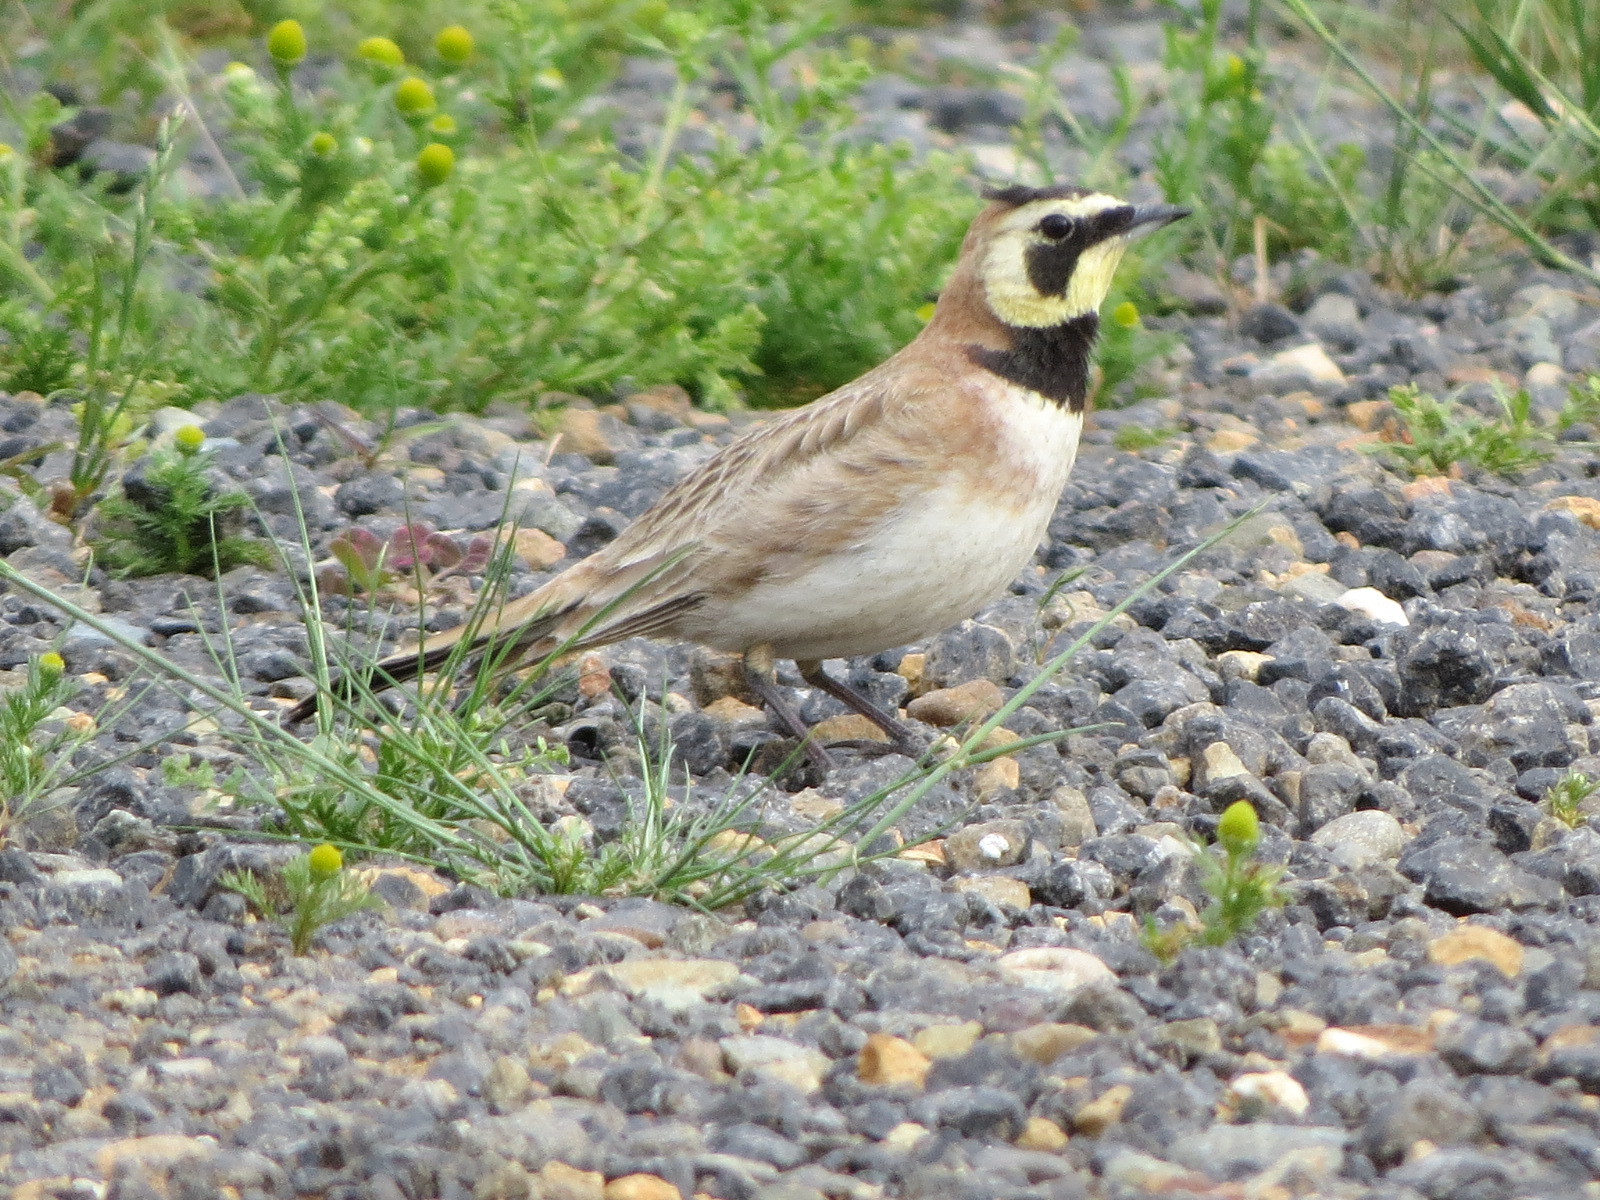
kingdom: Animalia
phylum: Chordata
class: Aves
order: Passeriformes
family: Alaudidae
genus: Eremophila
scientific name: Eremophila alpestris
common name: Horned lark
